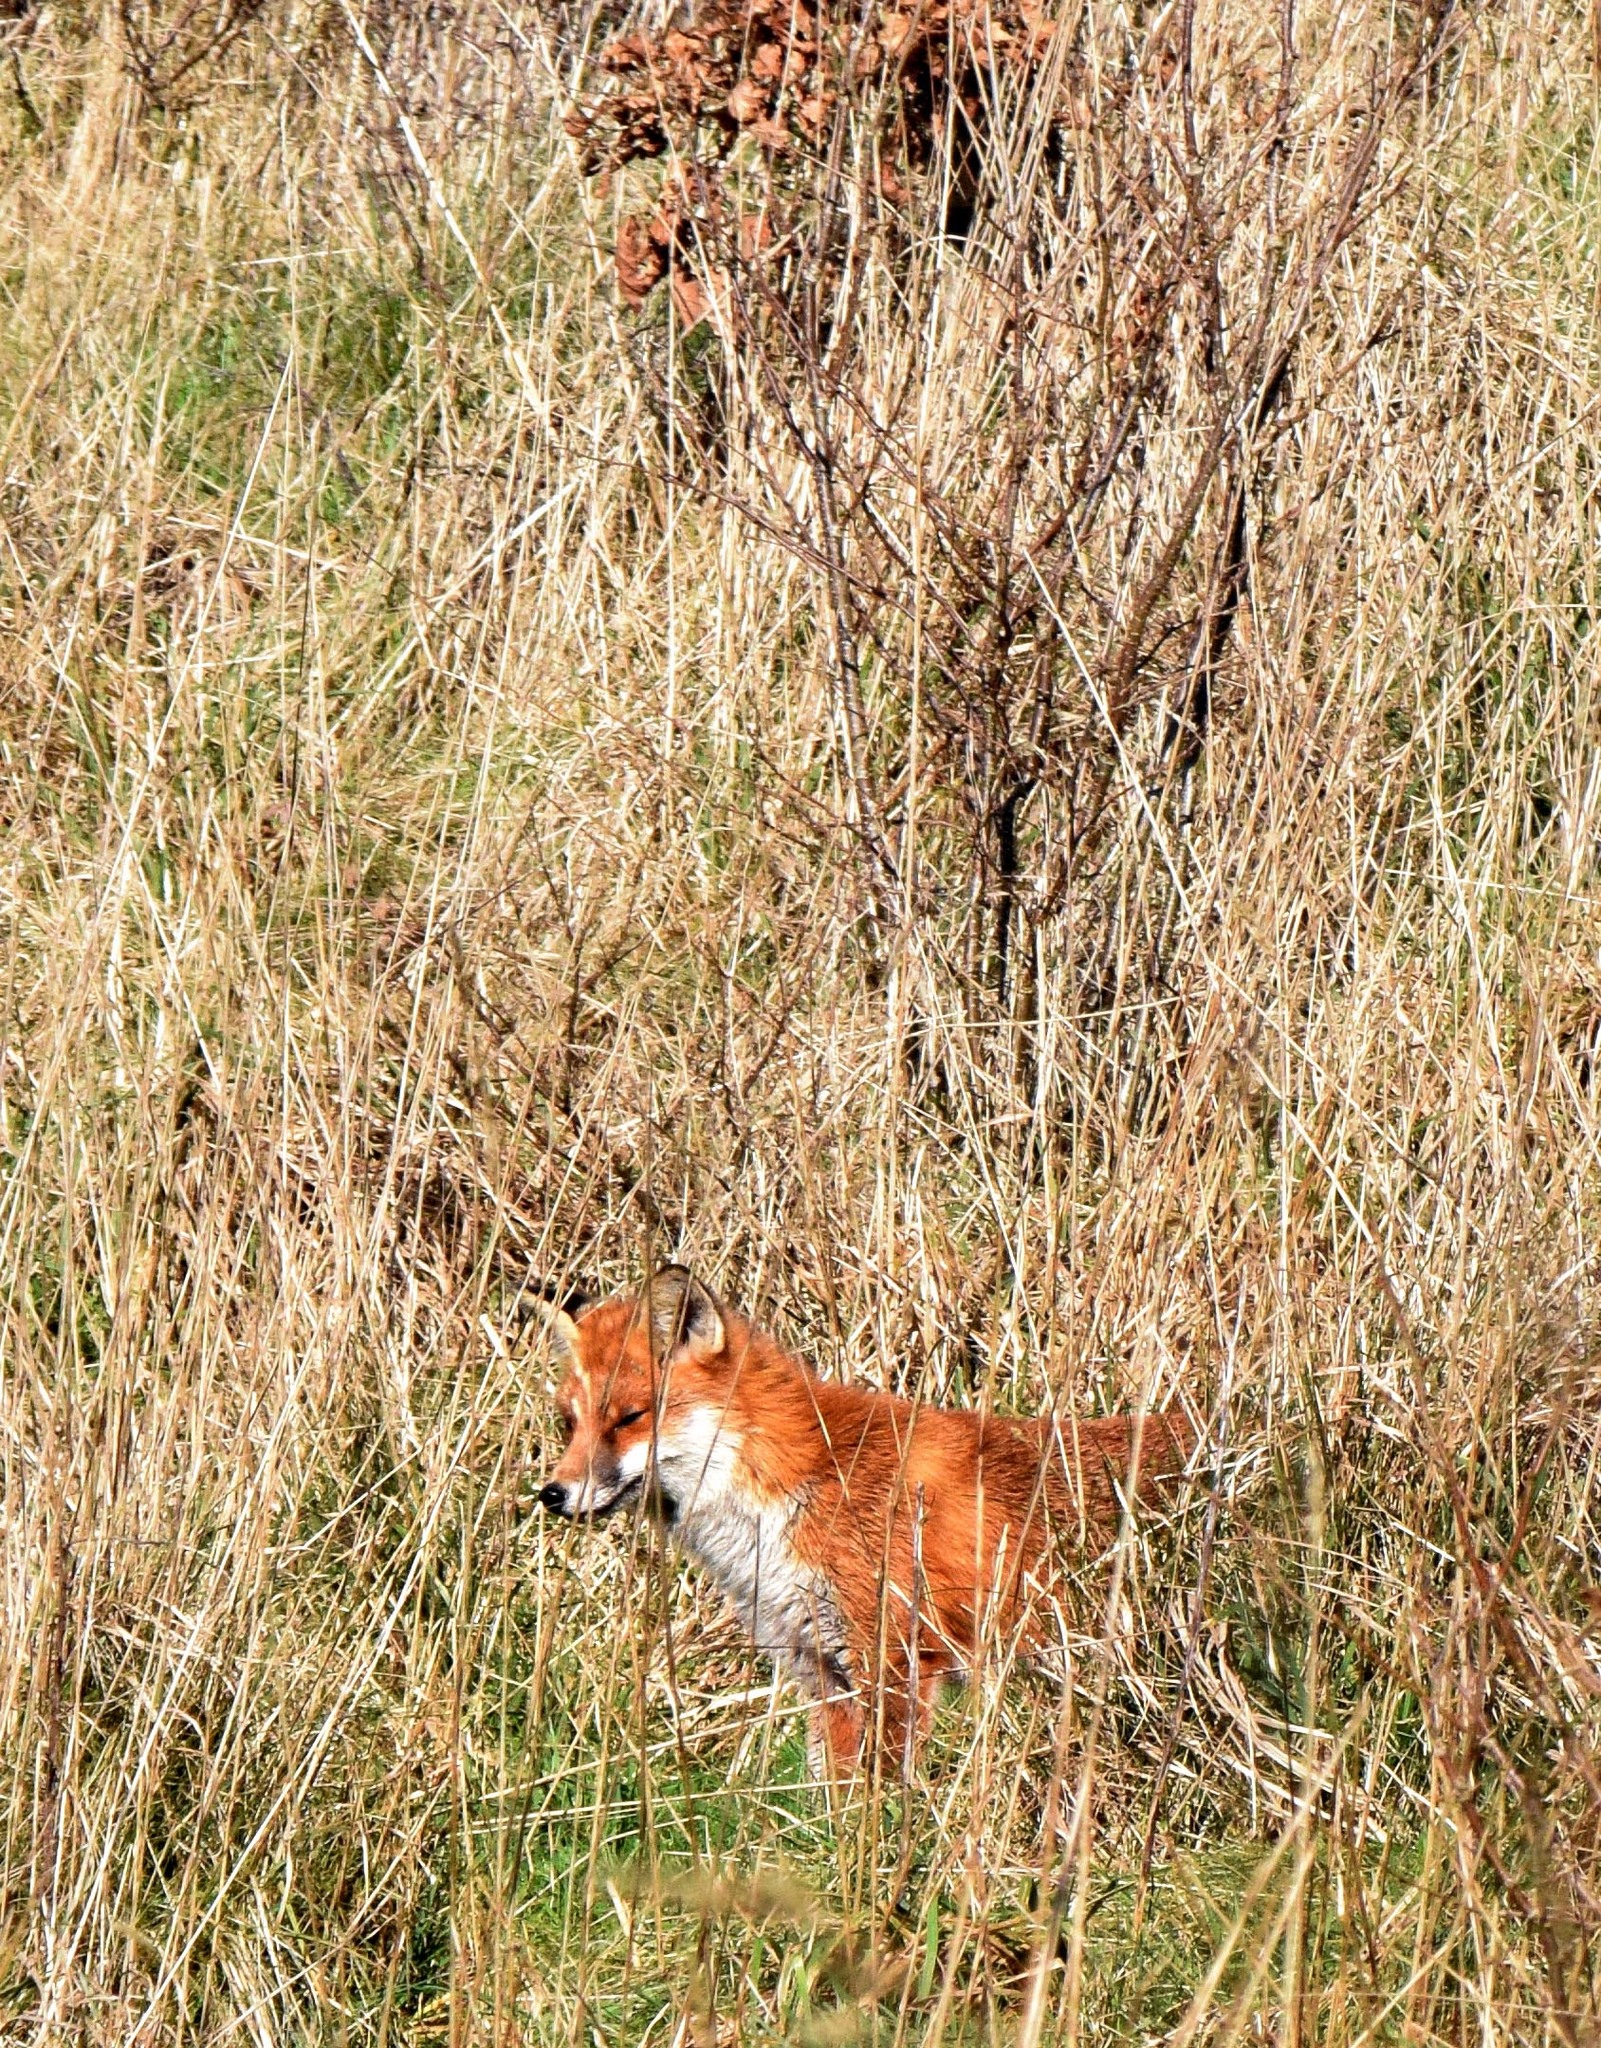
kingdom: Animalia
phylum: Chordata
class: Mammalia
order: Carnivora
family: Canidae
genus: Vulpes
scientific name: Vulpes vulpes
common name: Red fox
